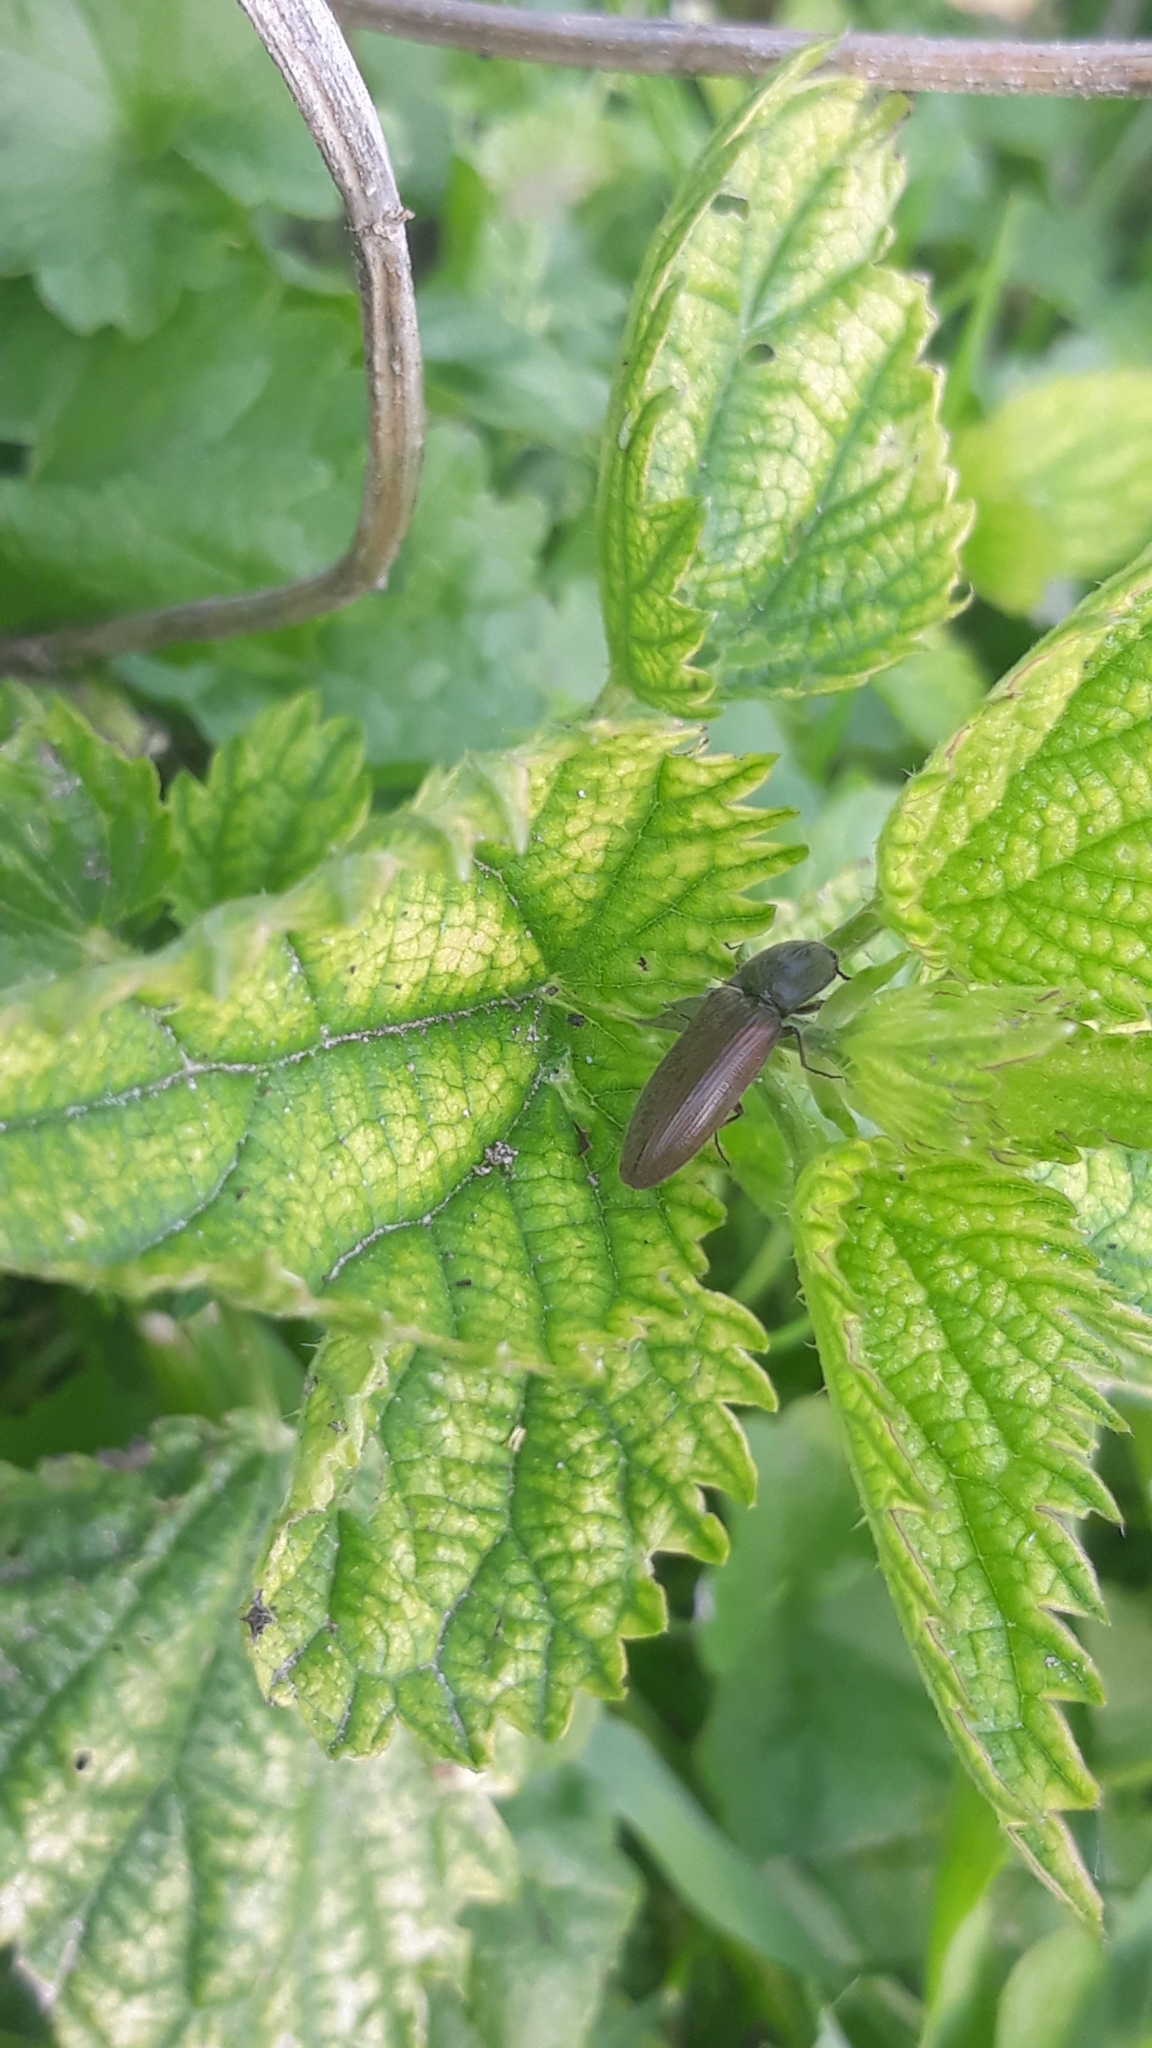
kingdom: Animalia
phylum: Arthropoda
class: Insecta
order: Coleoptera
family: Elateridae
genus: Athous
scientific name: Athous haemorrhoidalis
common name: Red-brown click beetle
